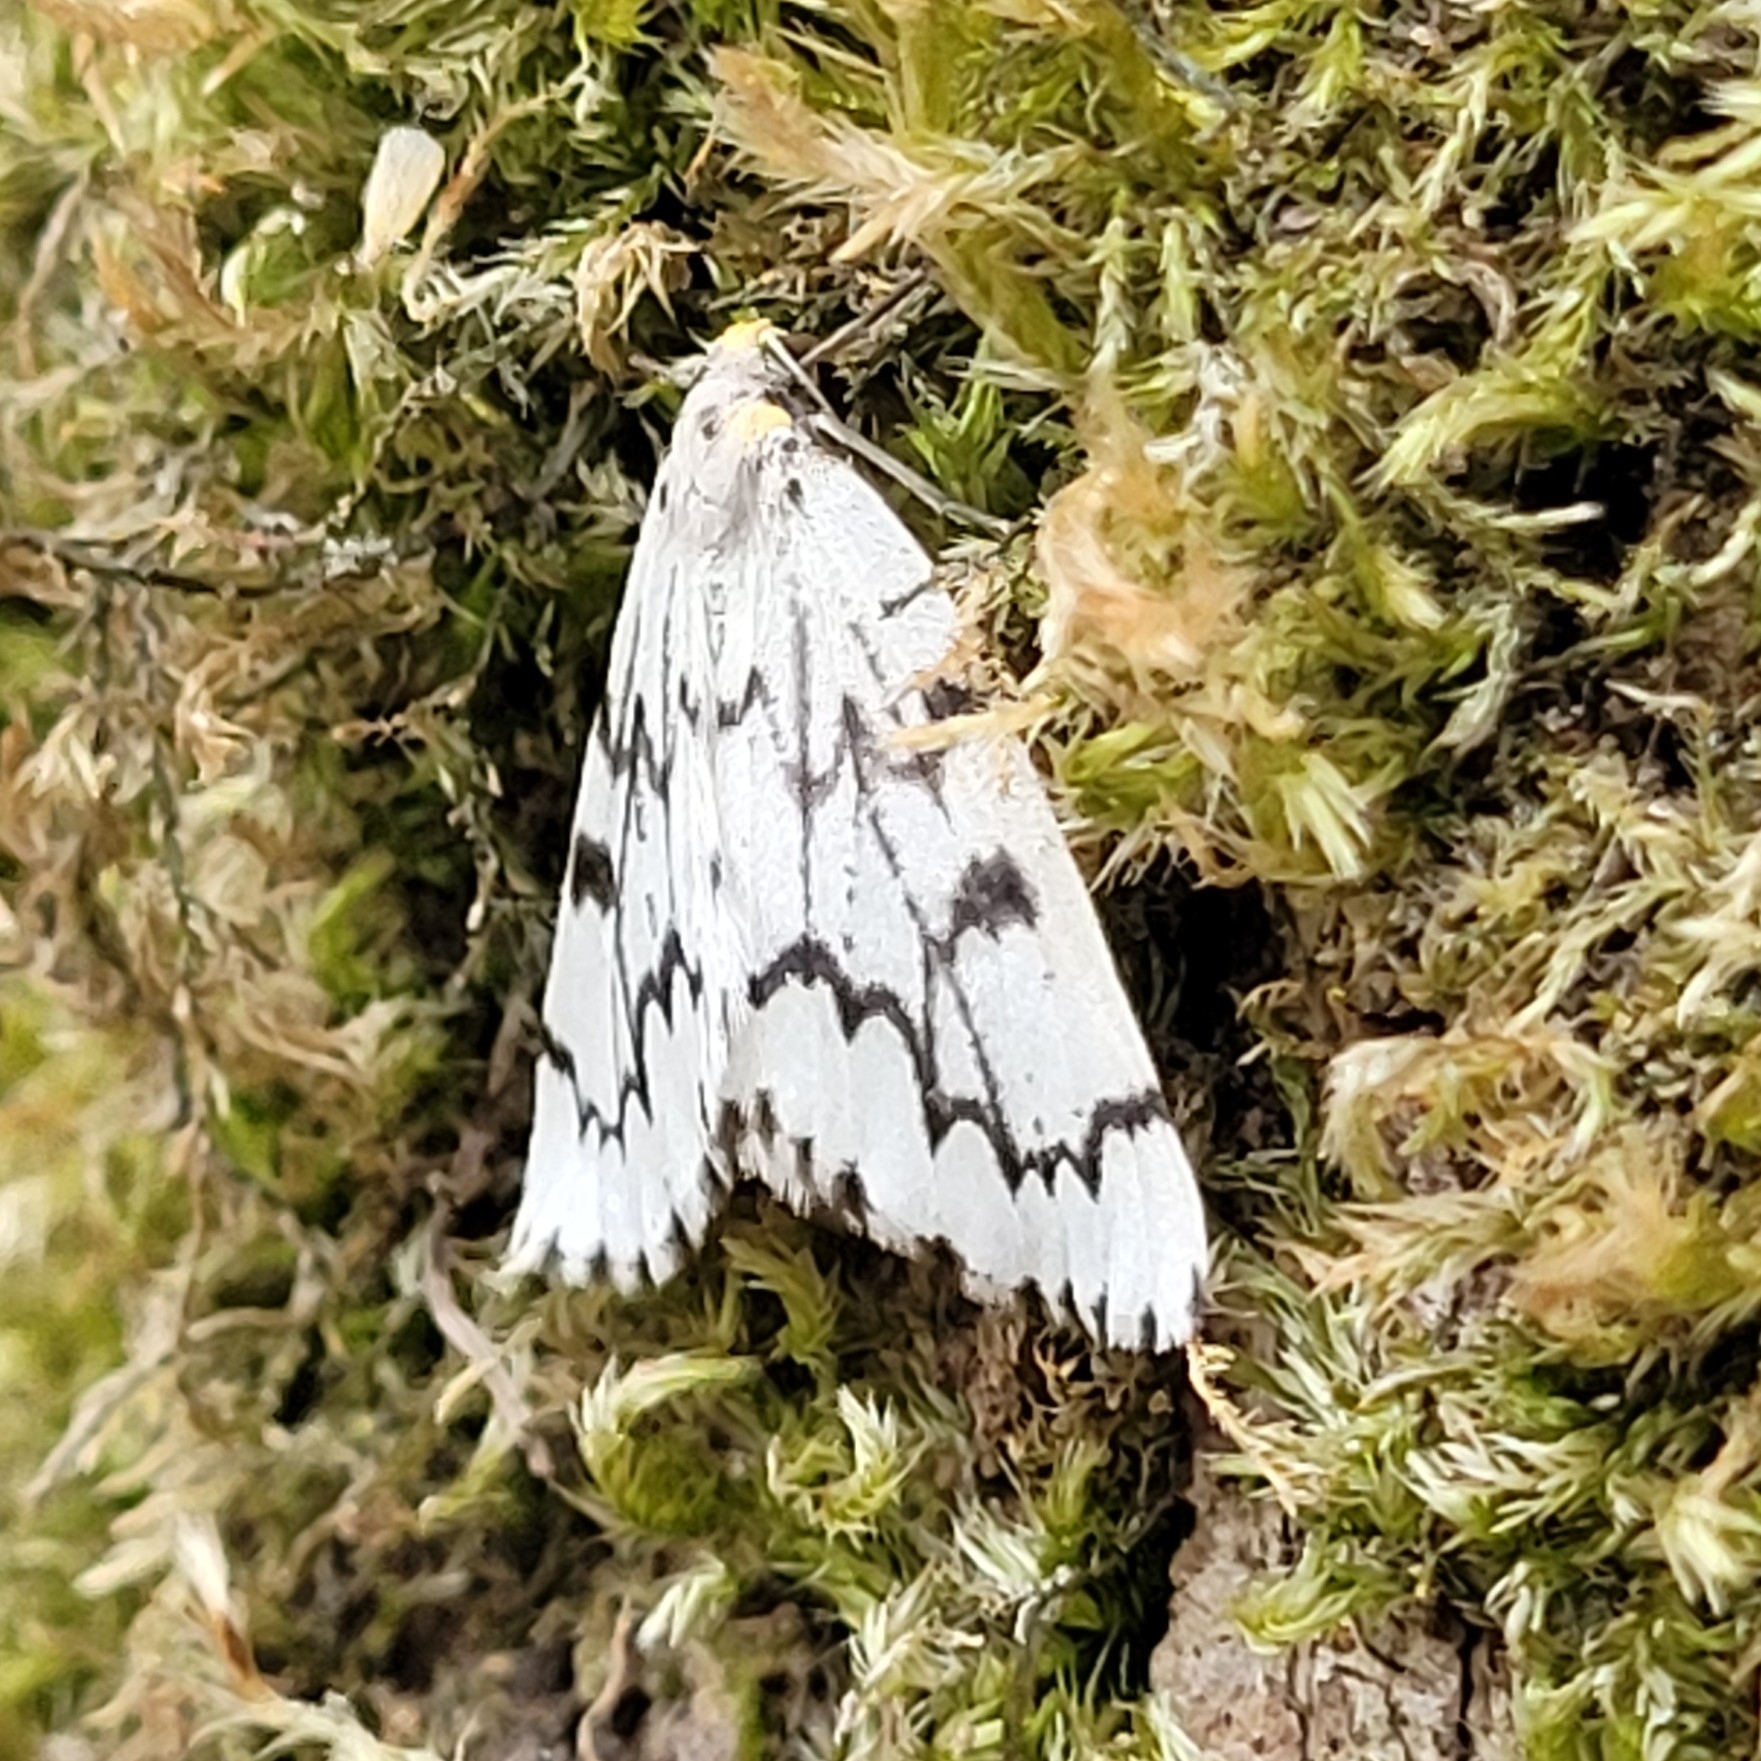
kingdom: Animalia
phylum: Arthropoda
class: Insecta
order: Lepidoptera
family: Geometridae
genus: Nepytia
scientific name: Nepytia phantasmaria
